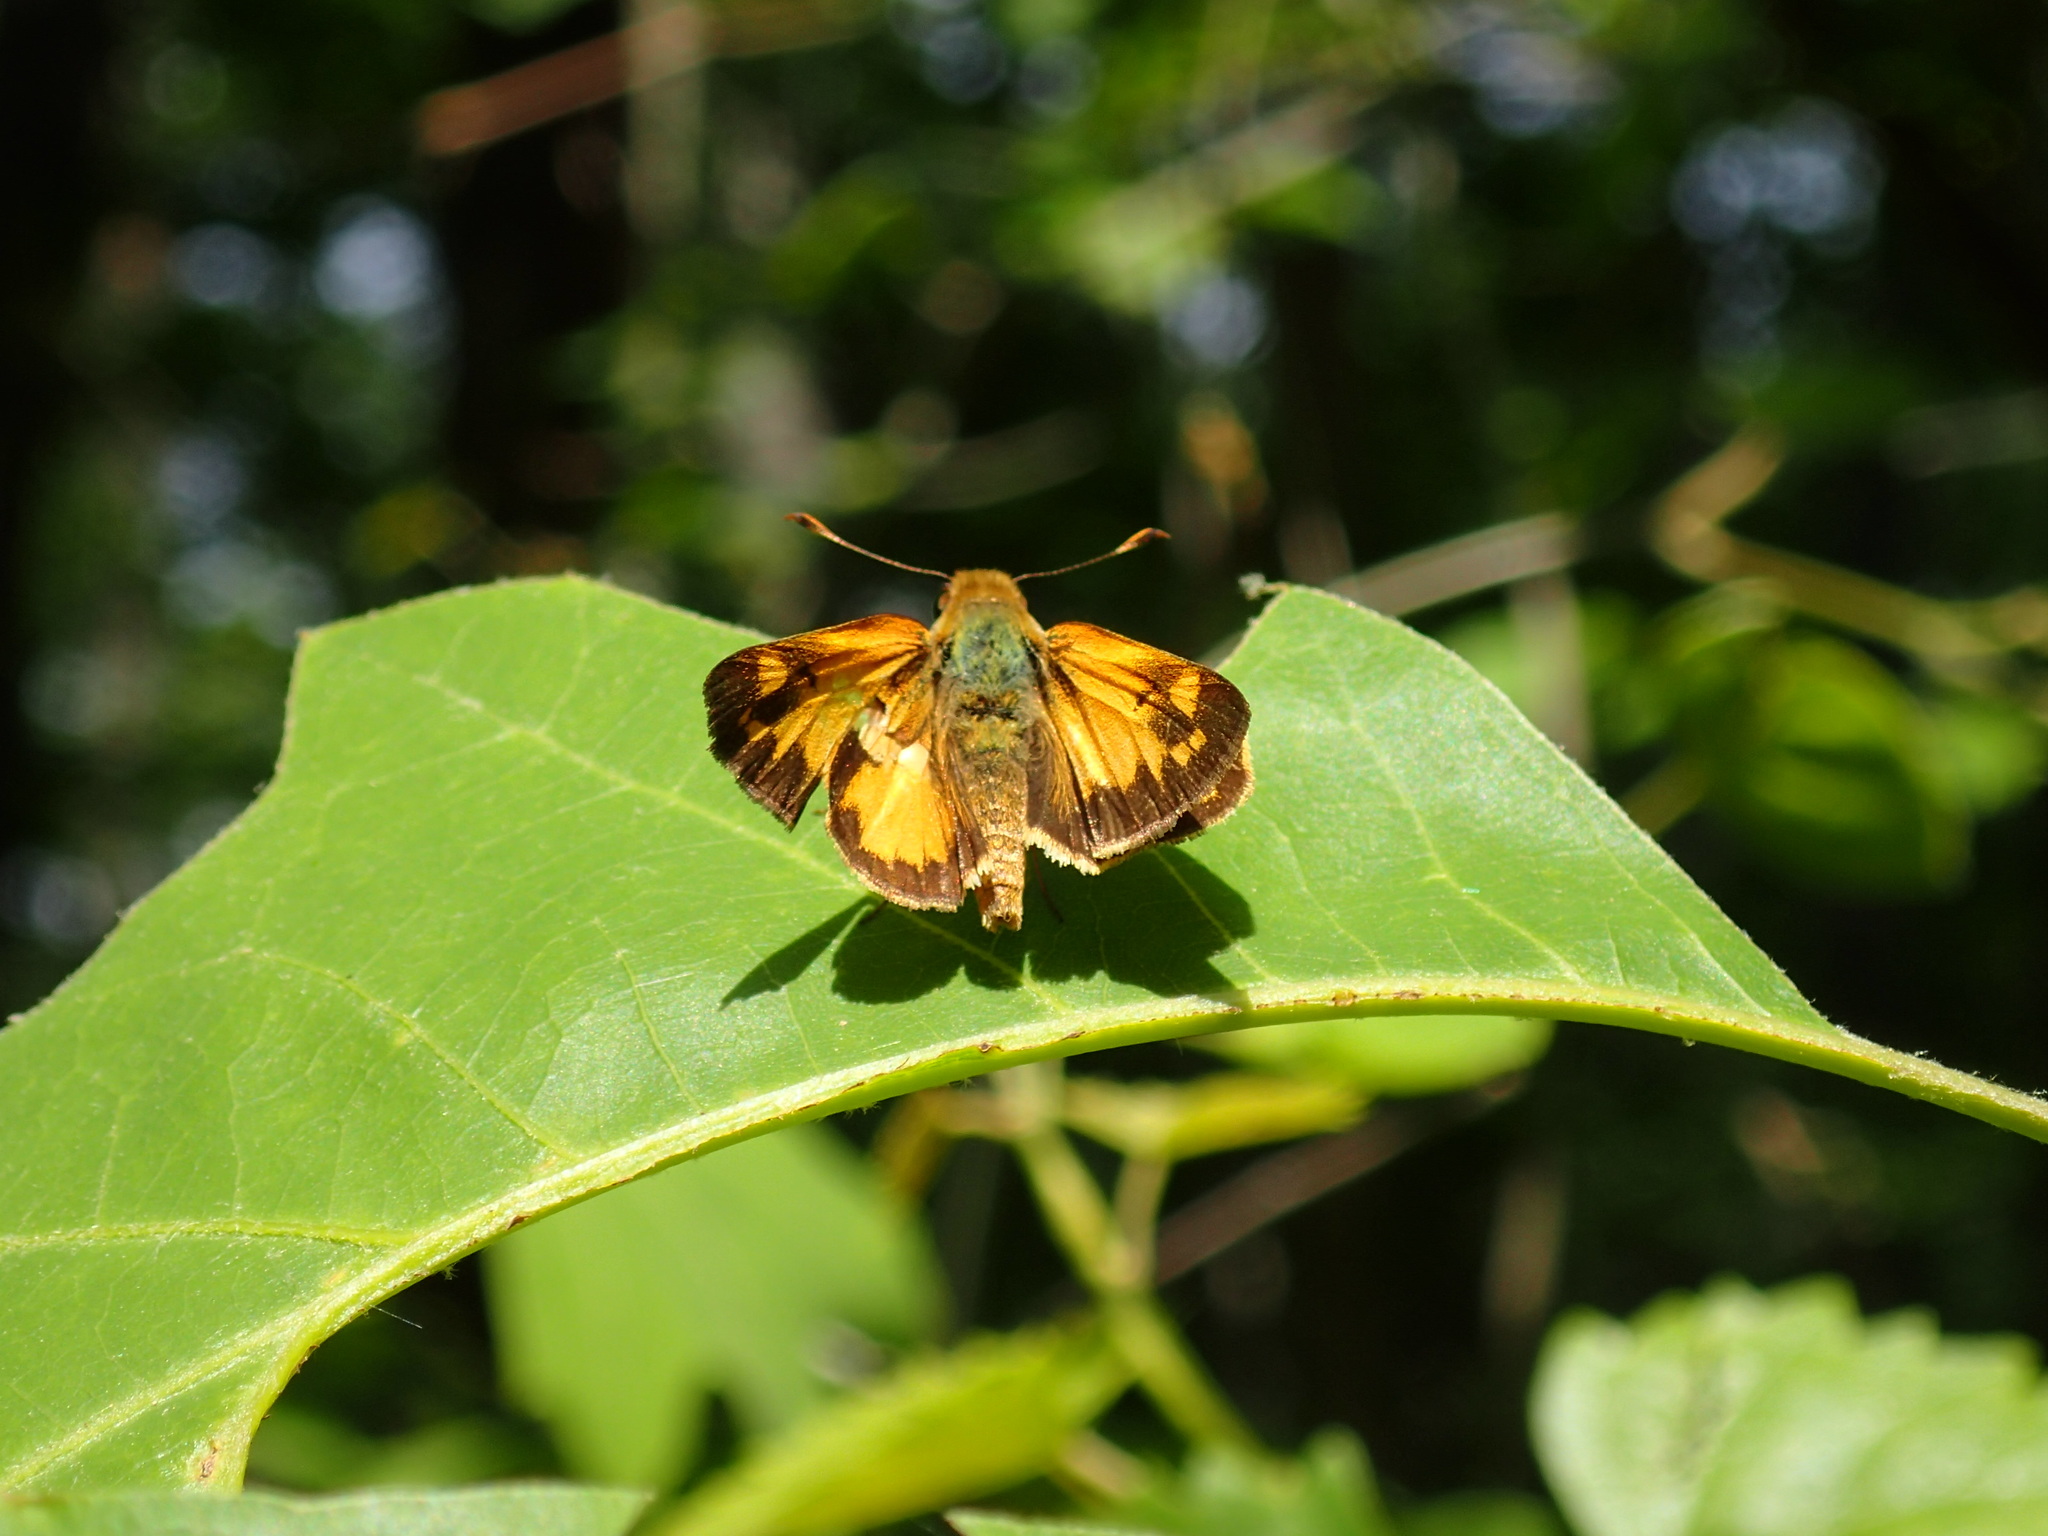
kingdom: Animalia
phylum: Arthropoda
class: Insecta
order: Lepidoptera
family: Hesperiidae
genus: Lon
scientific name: Lon zabulon
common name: Zabulon skipper
